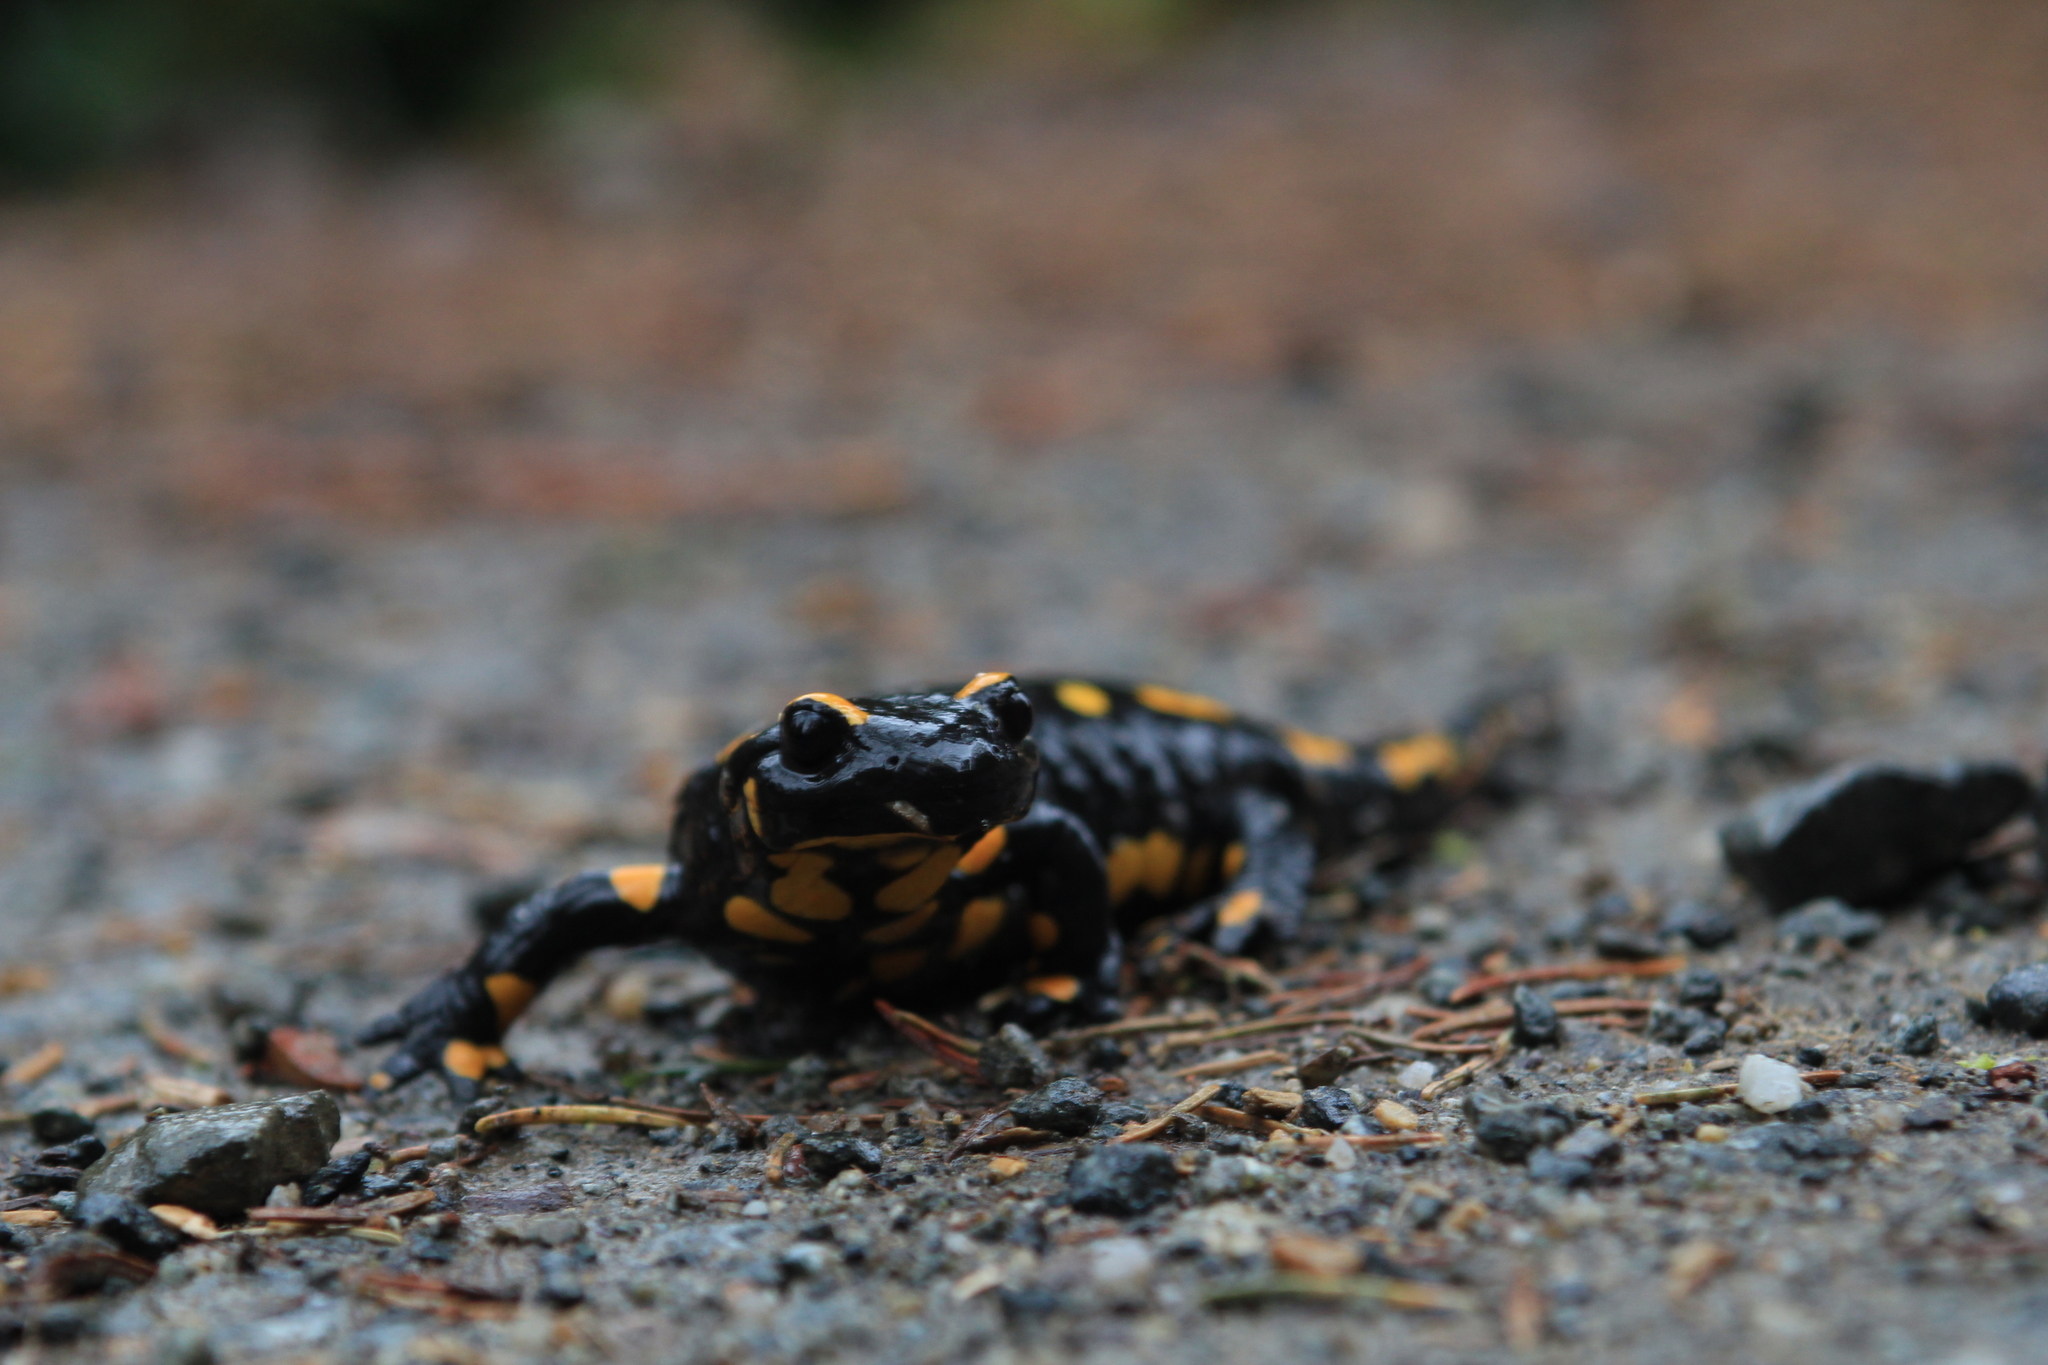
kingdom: Animalia
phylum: Chordata
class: Amphibia
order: Caudata
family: Salamandridae
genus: Salamandra
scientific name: Salamandra salamandra
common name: Fire salamander
